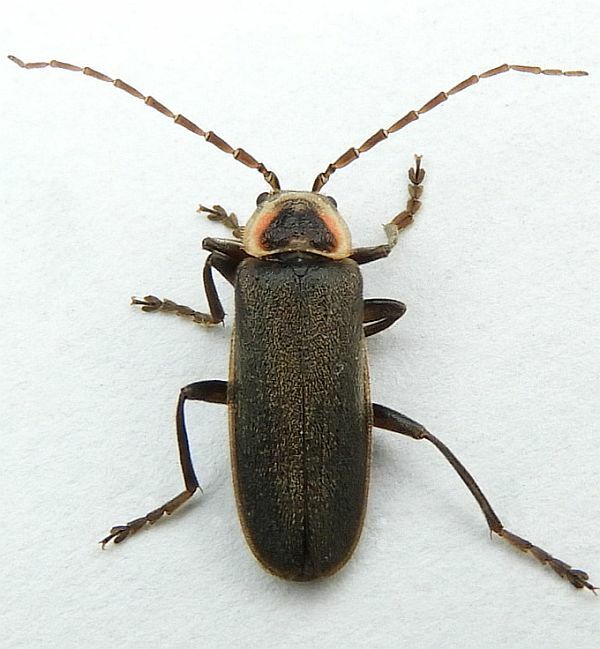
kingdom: Animalia
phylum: Arthropoda
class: Insecta
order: Coleoptera
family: Cantharidae
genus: Atalantycha
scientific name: Atalantycha dentigera
